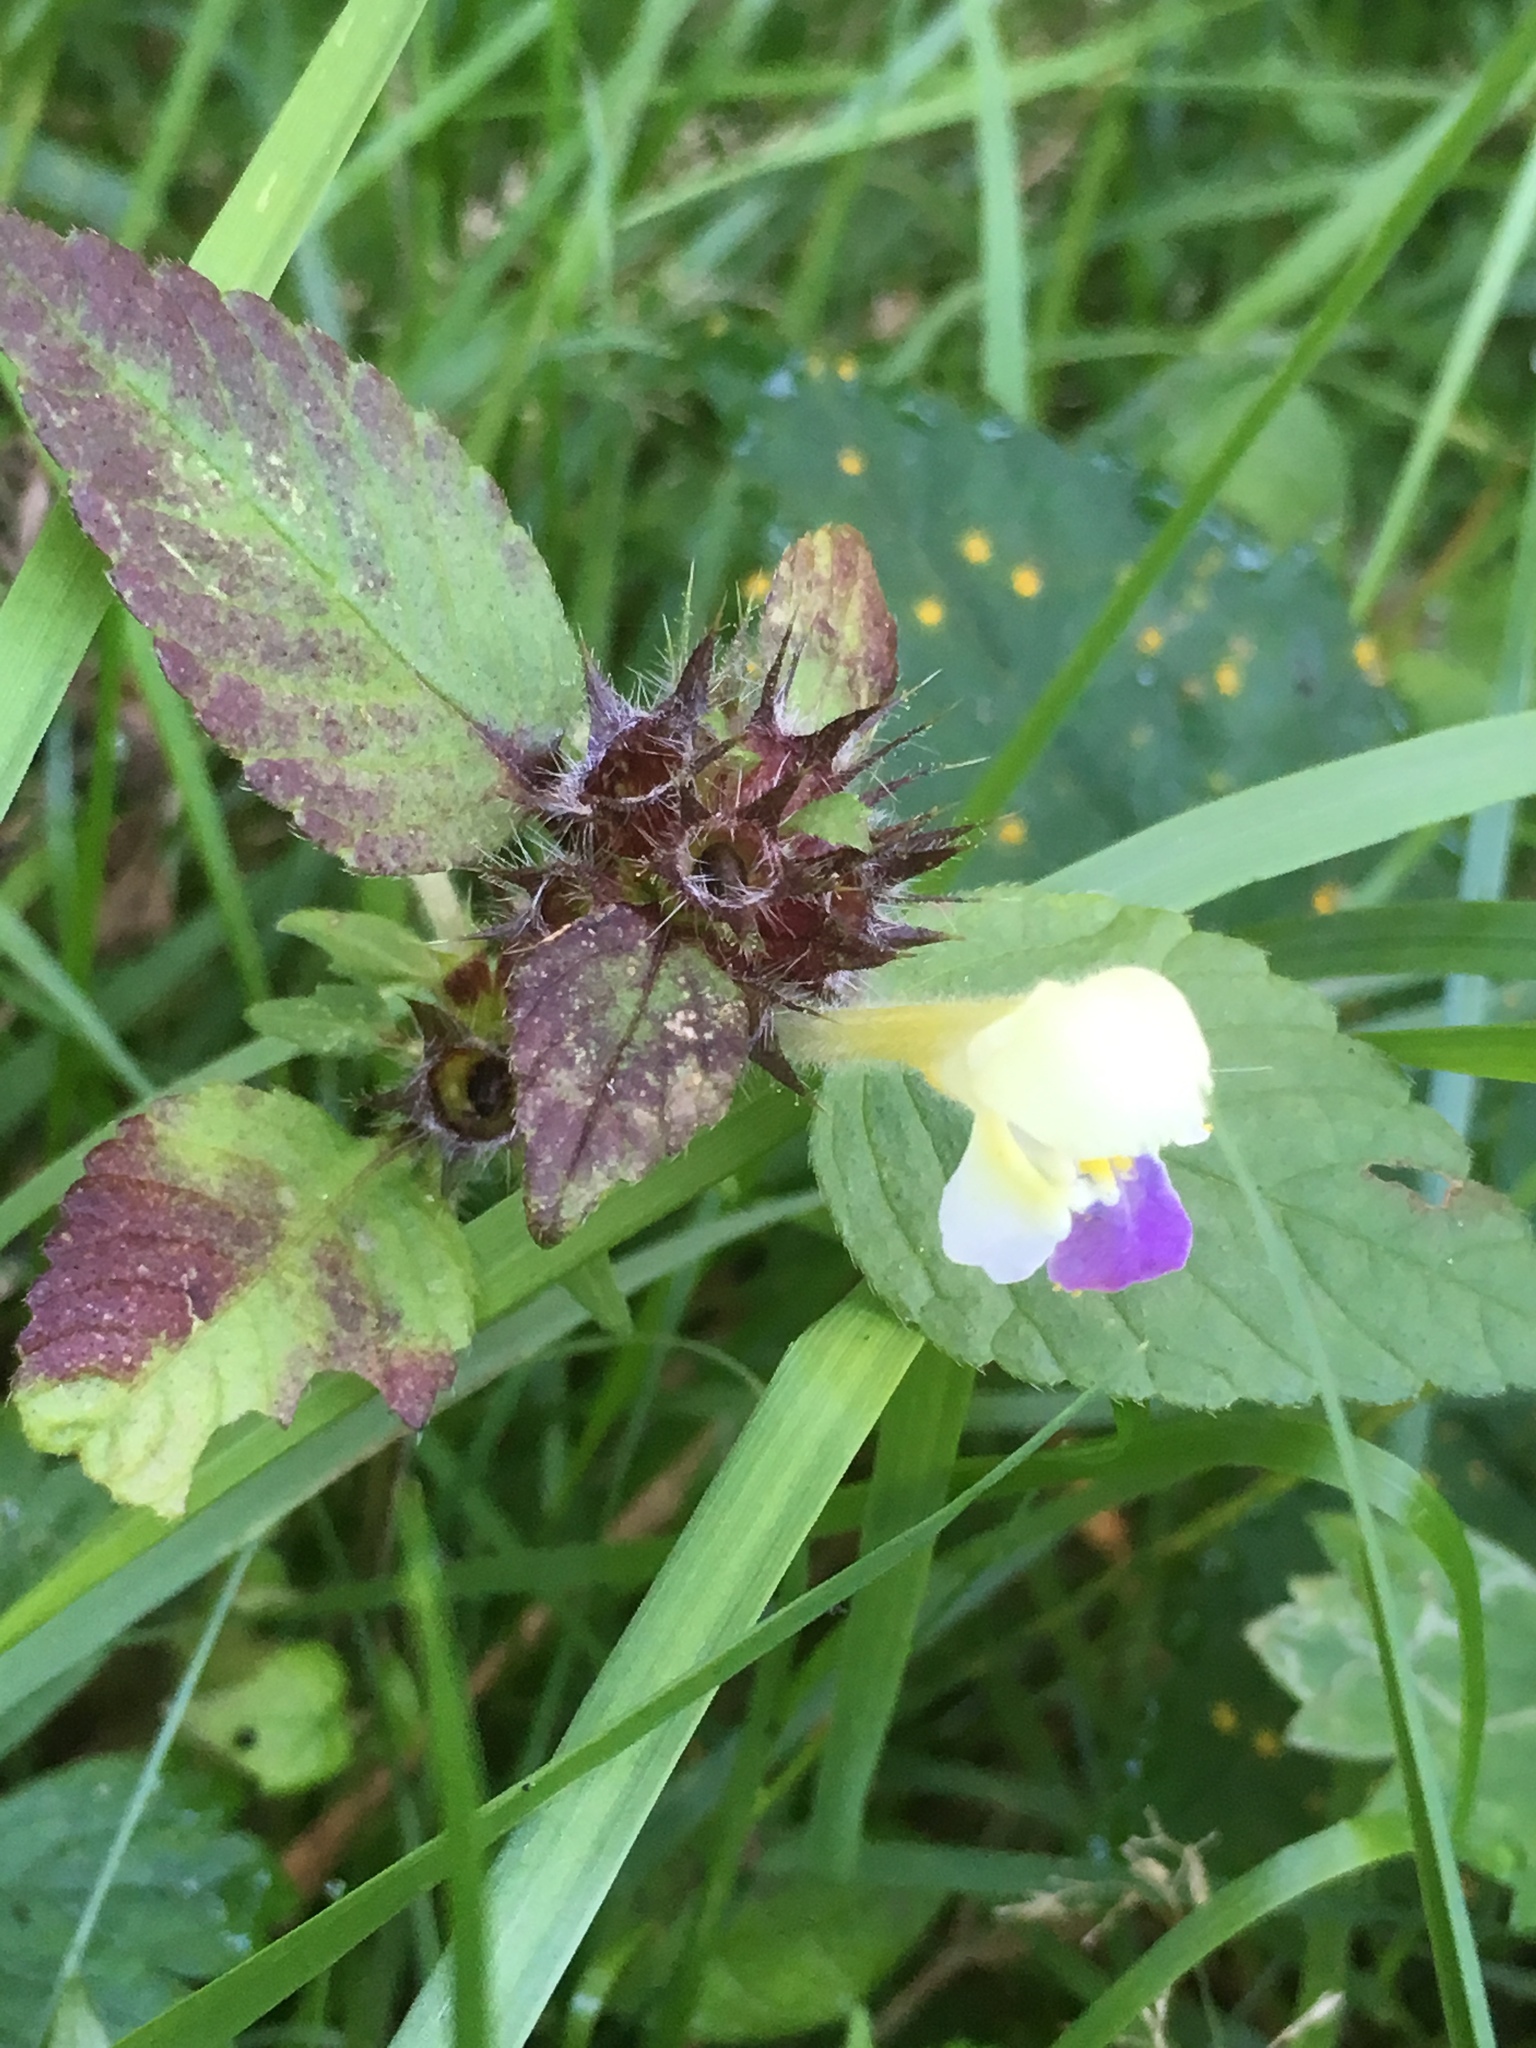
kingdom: Plantae
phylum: Tracheophyta
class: Magnoliopsida
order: Lamiales
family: Lamiaceae
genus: Galeopsis
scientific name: Galeopsis speciosa
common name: Large-flowered hemp-nettle
